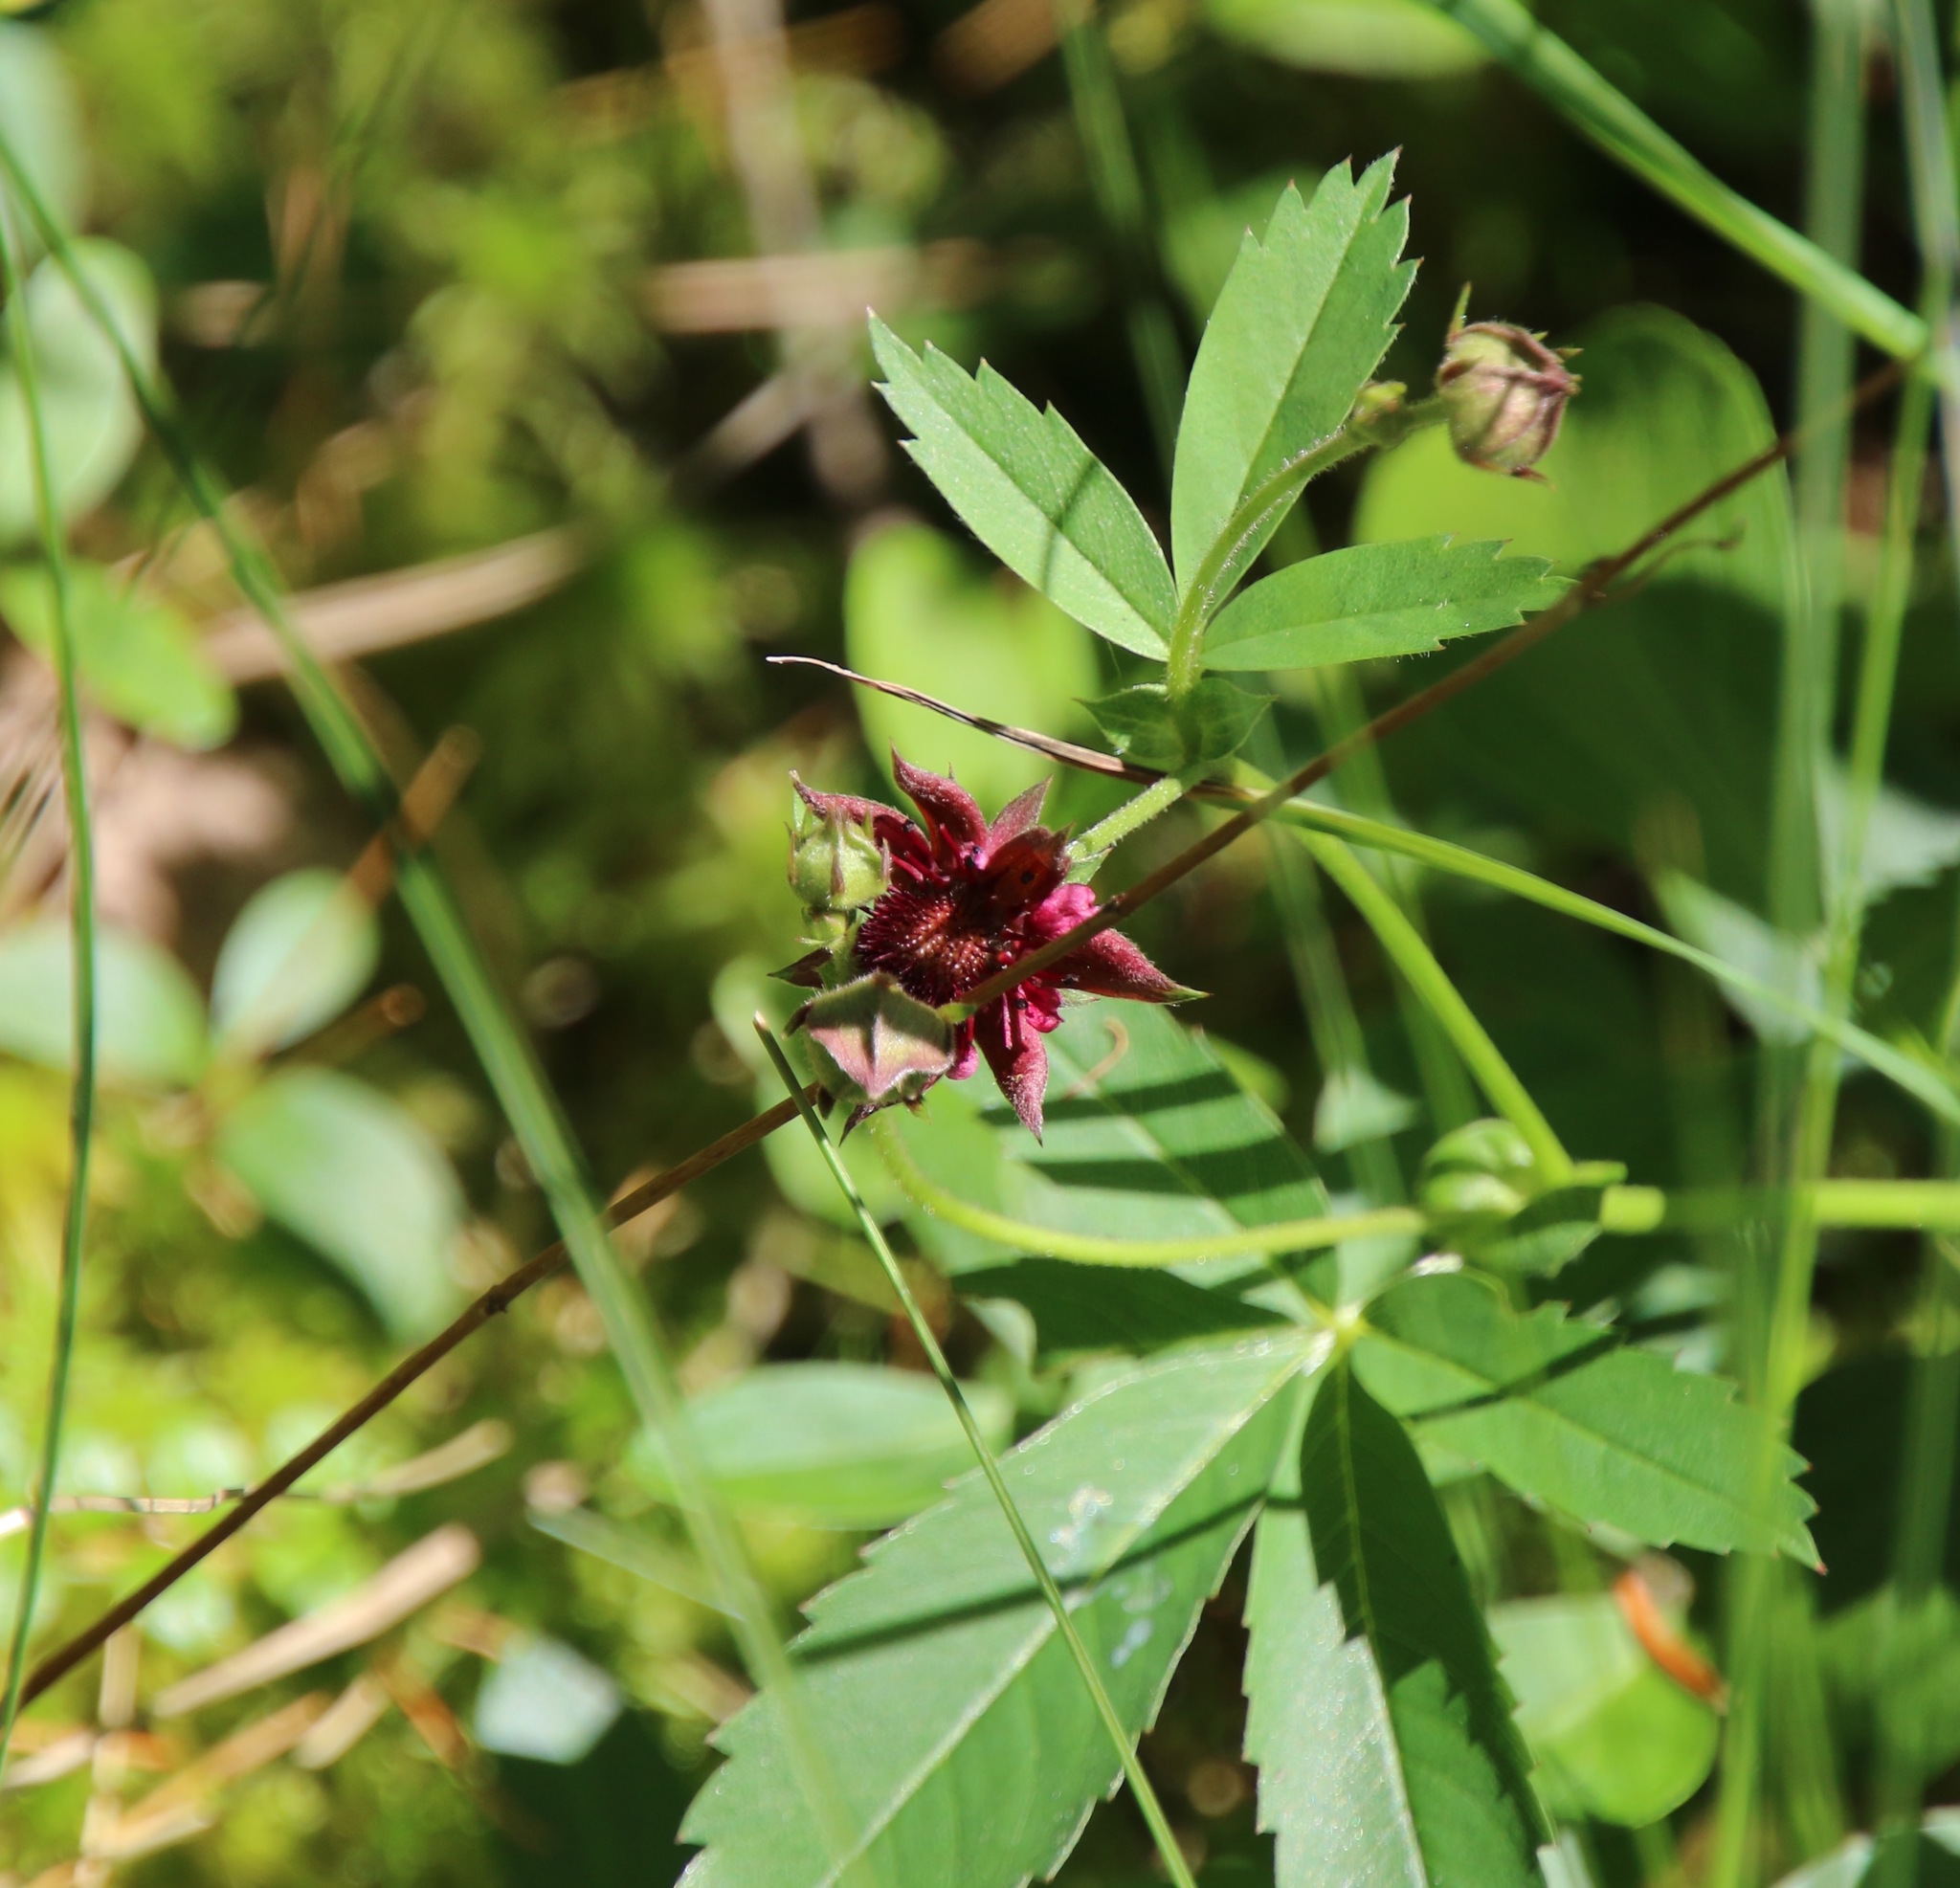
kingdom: Plantae
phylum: Tracheophyta
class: Magnoliopsida
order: Rosales
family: Rosaceae
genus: Comarum
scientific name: Comarum palustre
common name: Marsh cinquefoil
